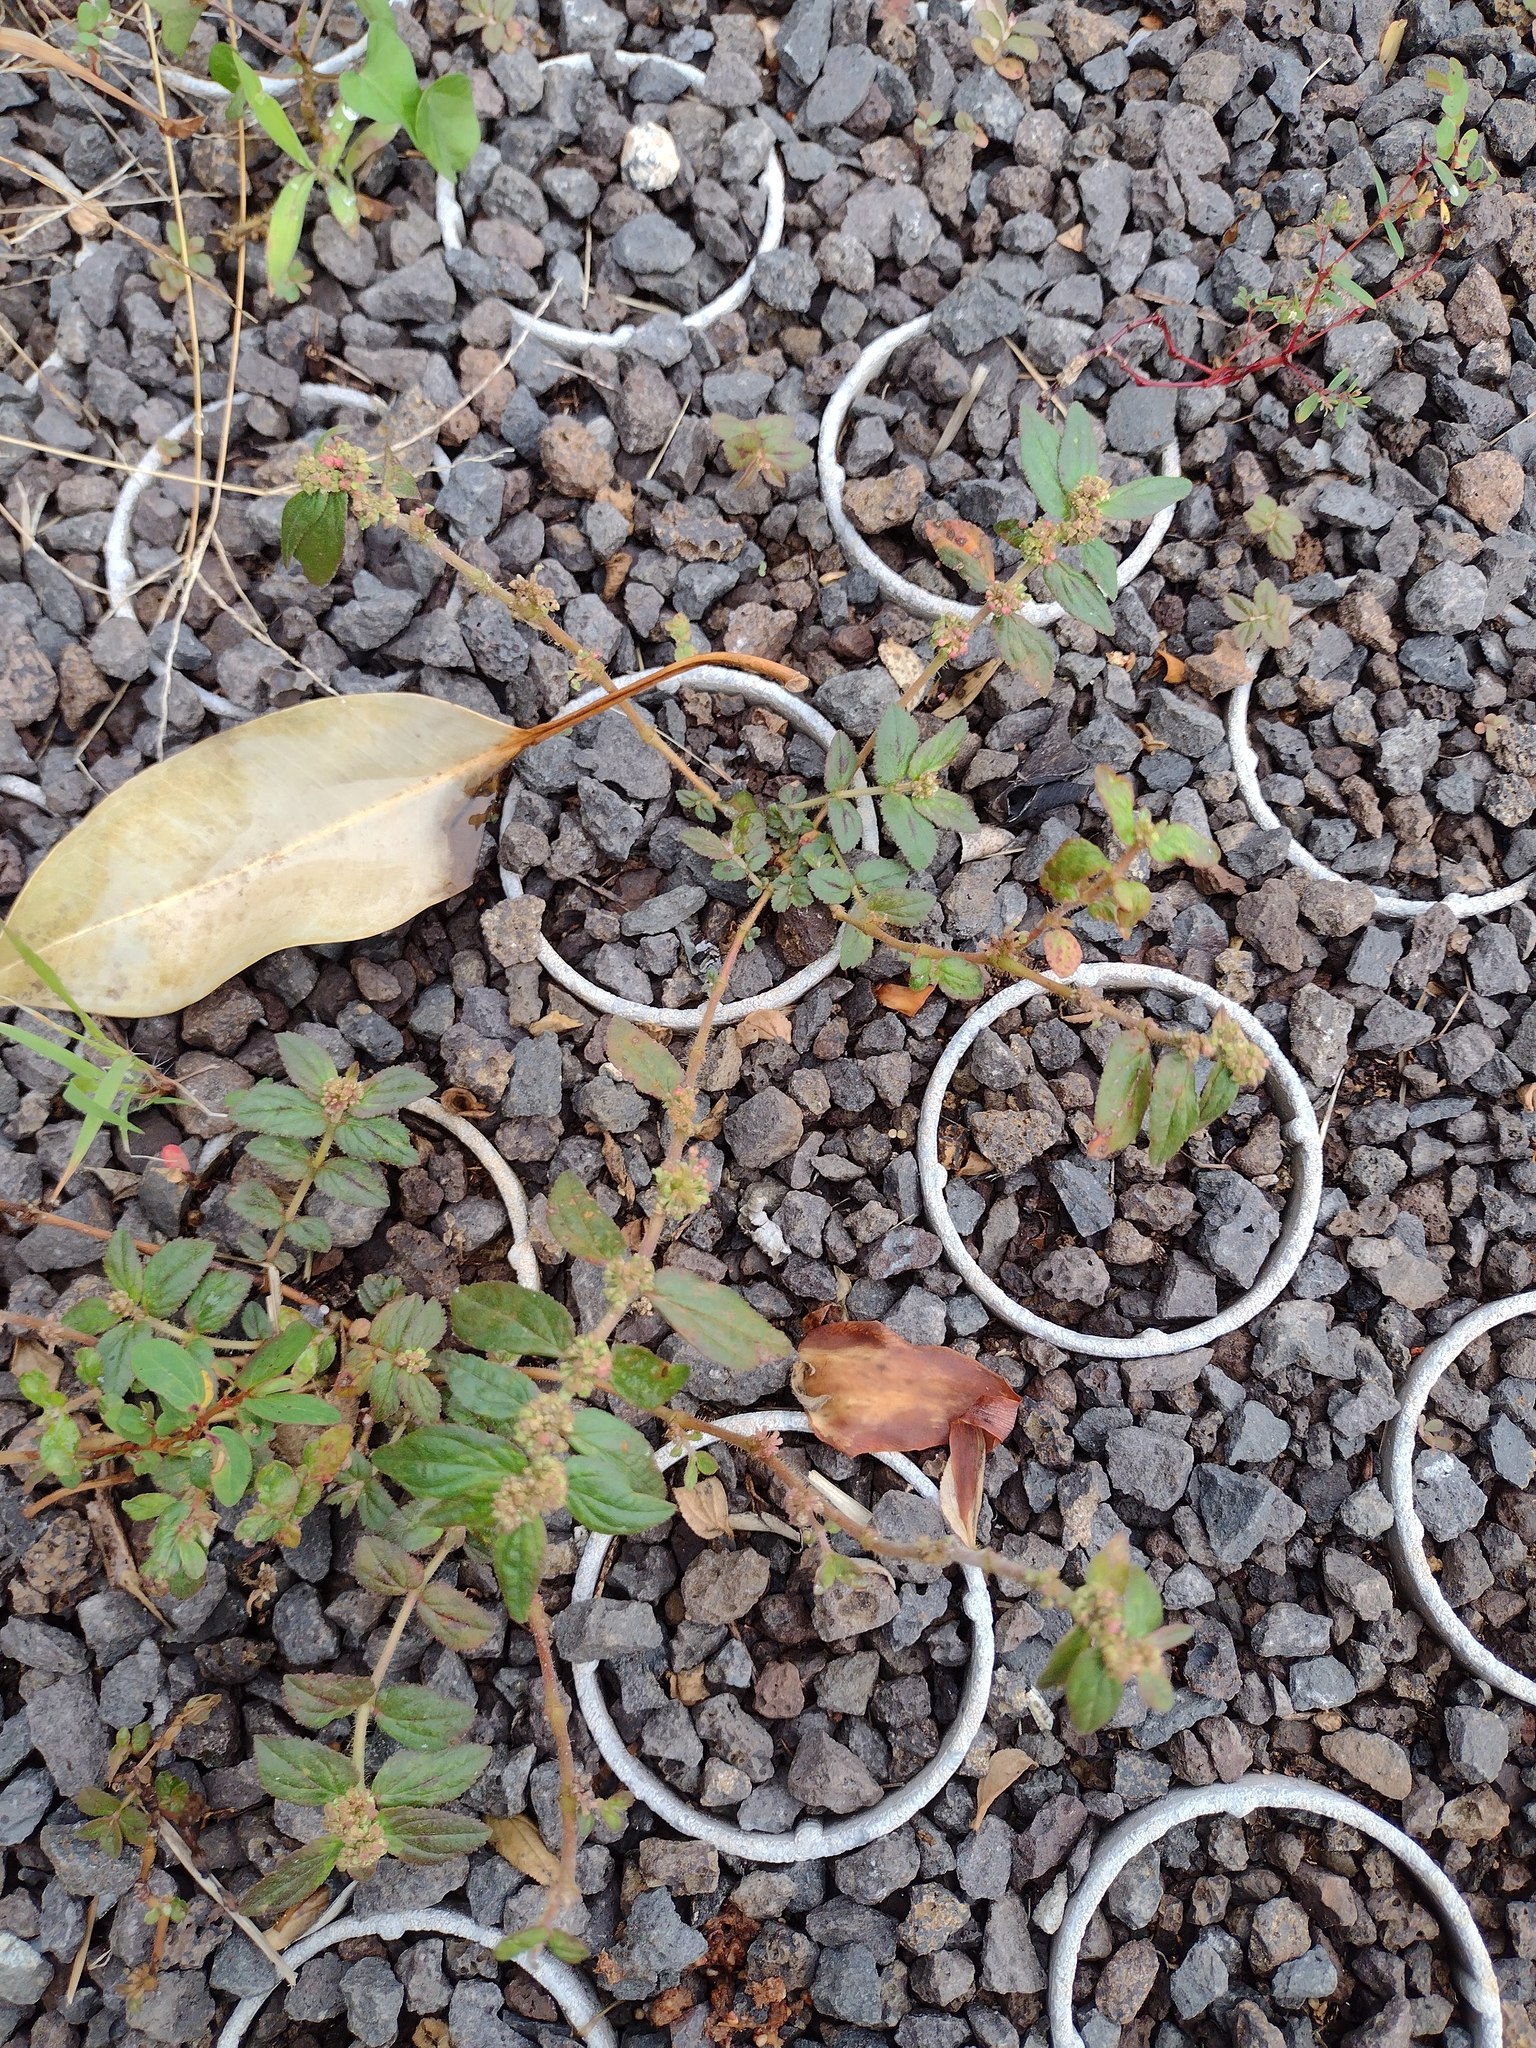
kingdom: Plantae
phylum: Tracheophyta
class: Magnoliopsida
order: Malpighiales
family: Euphorbiaceae
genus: Euphorbia
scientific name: Euphorbia hirta
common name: Pillpod sandmat
